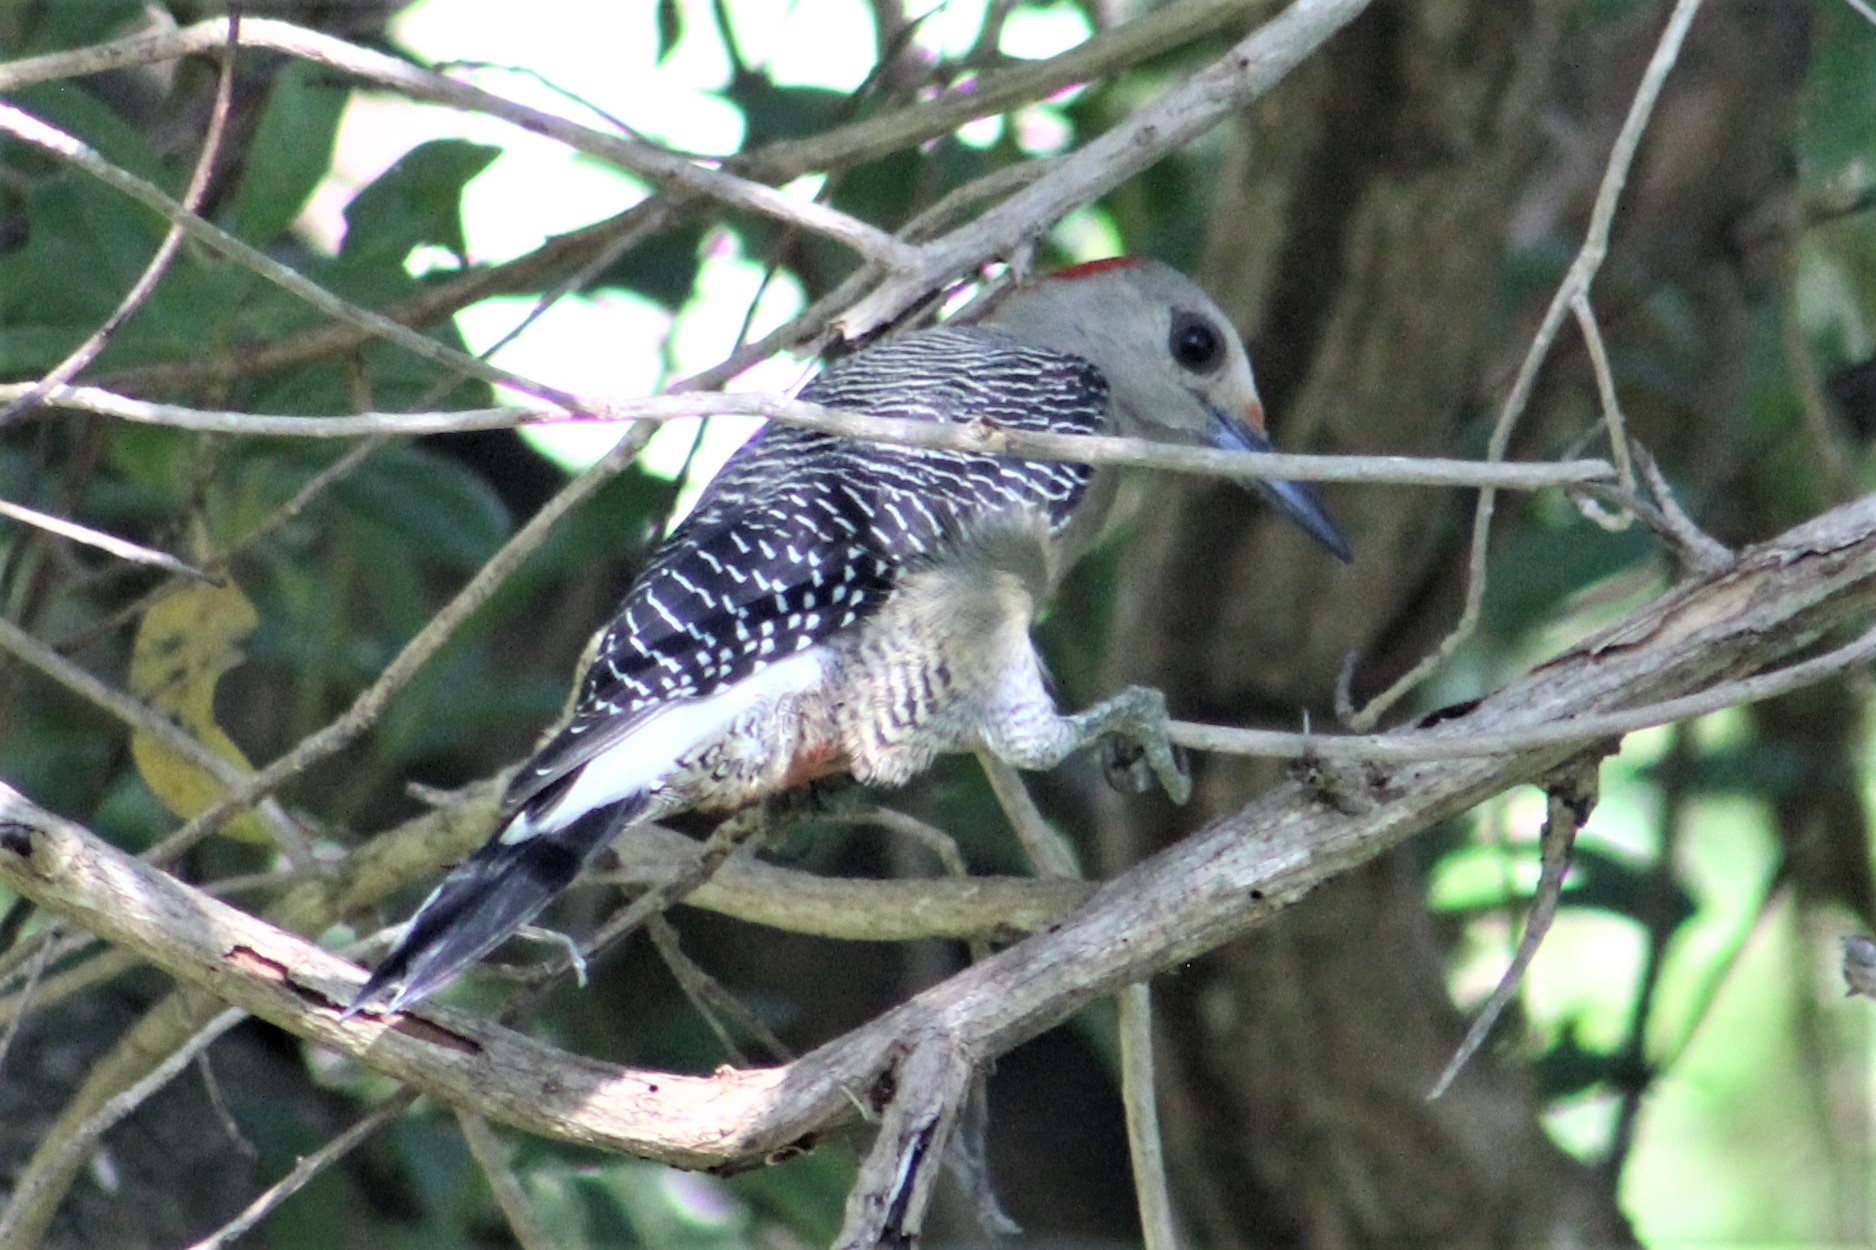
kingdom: Animalia
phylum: Chordata
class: Aves
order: Piciformes
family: Picidae
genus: Melanerpes
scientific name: Melanerpes aurifrons
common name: Golden-fronted woodpecker
